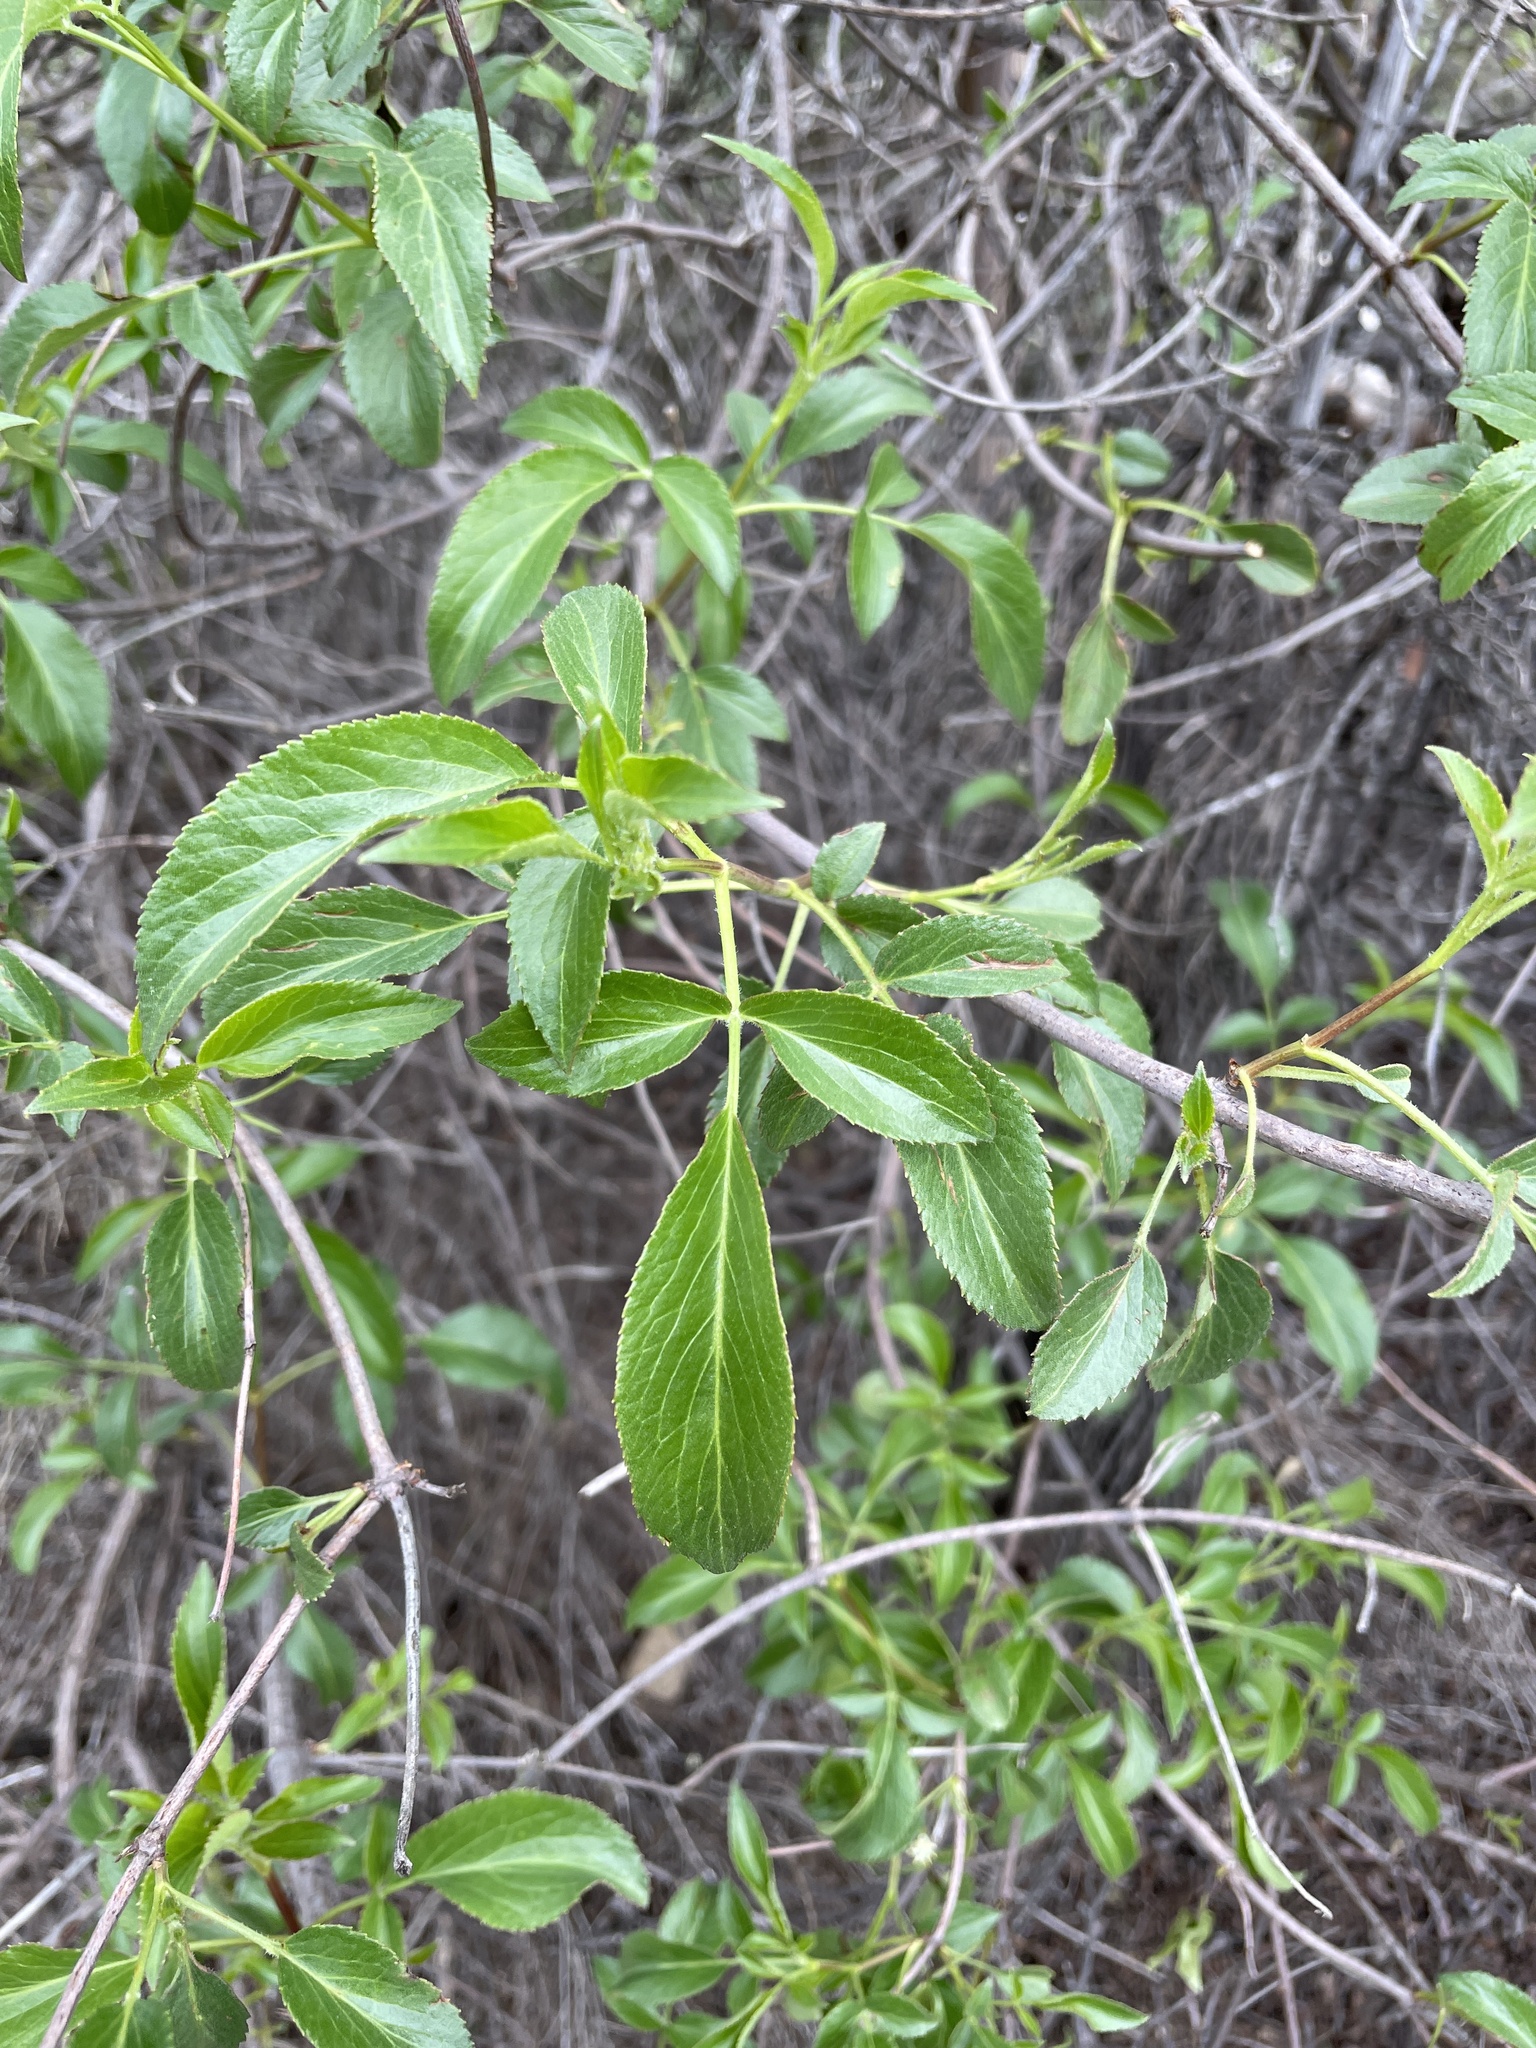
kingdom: Plantae
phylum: Tracheophyta
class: Magnoliopsida
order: Dipsacales
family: Viburnaceae
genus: Sambucus
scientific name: Sambucus cerulea
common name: Blue elder
